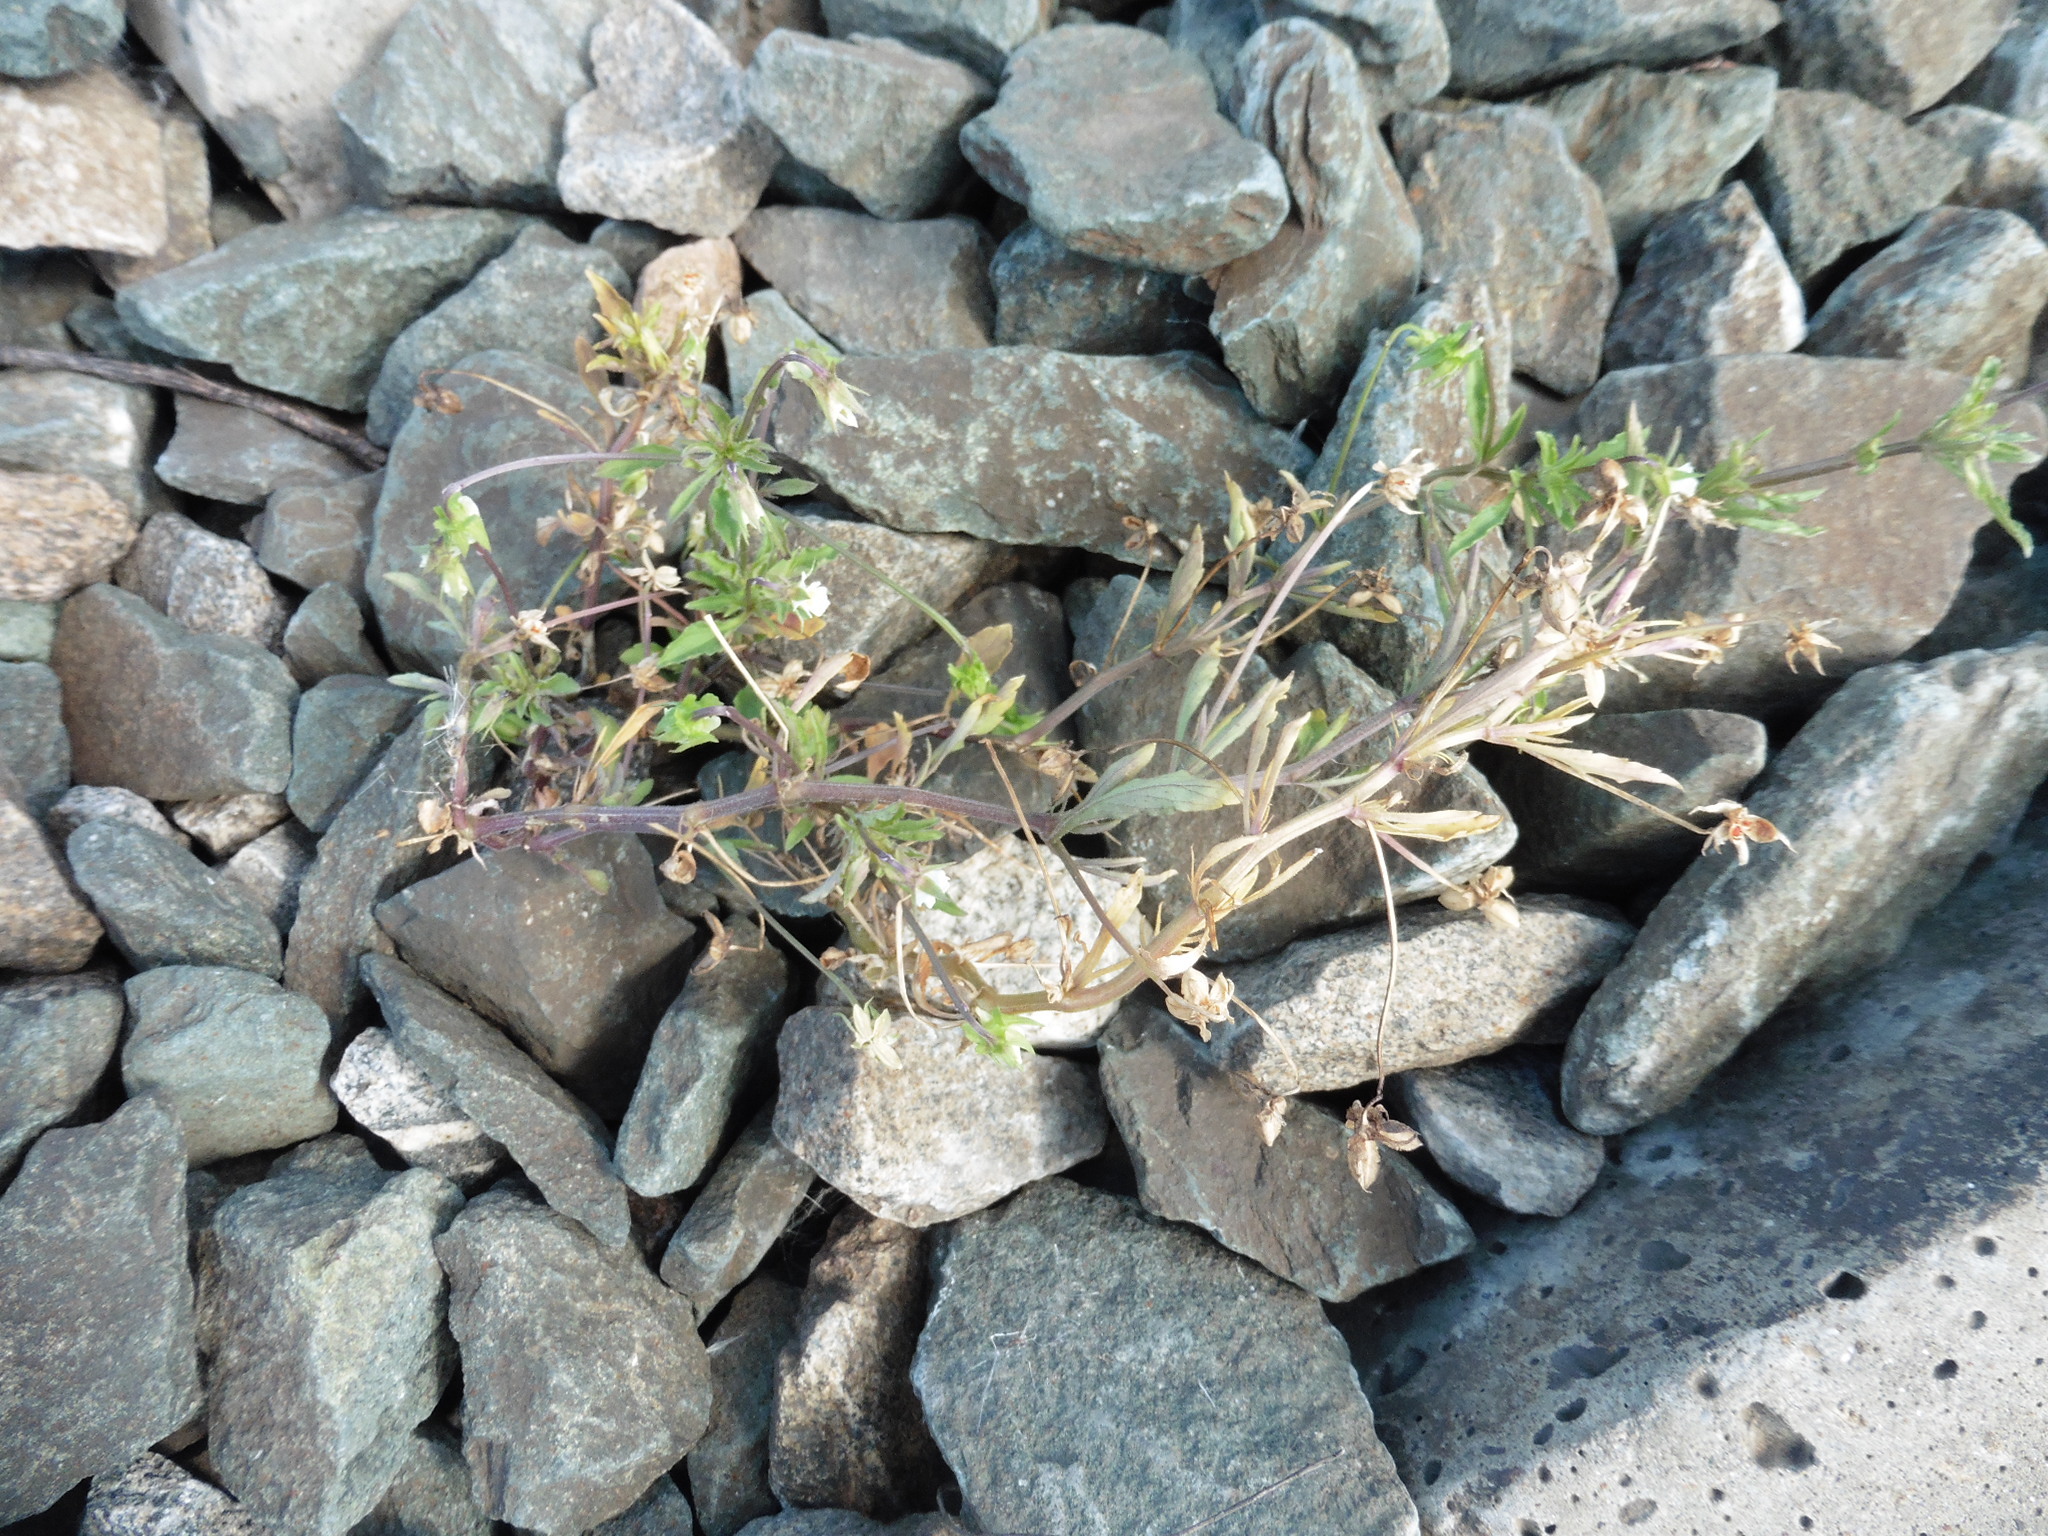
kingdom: Plantae
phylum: Tracheophyta
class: Magnoliopsida
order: Malpighiales
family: Violaceae
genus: Viola
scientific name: Viola arvensis
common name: Field pansy
